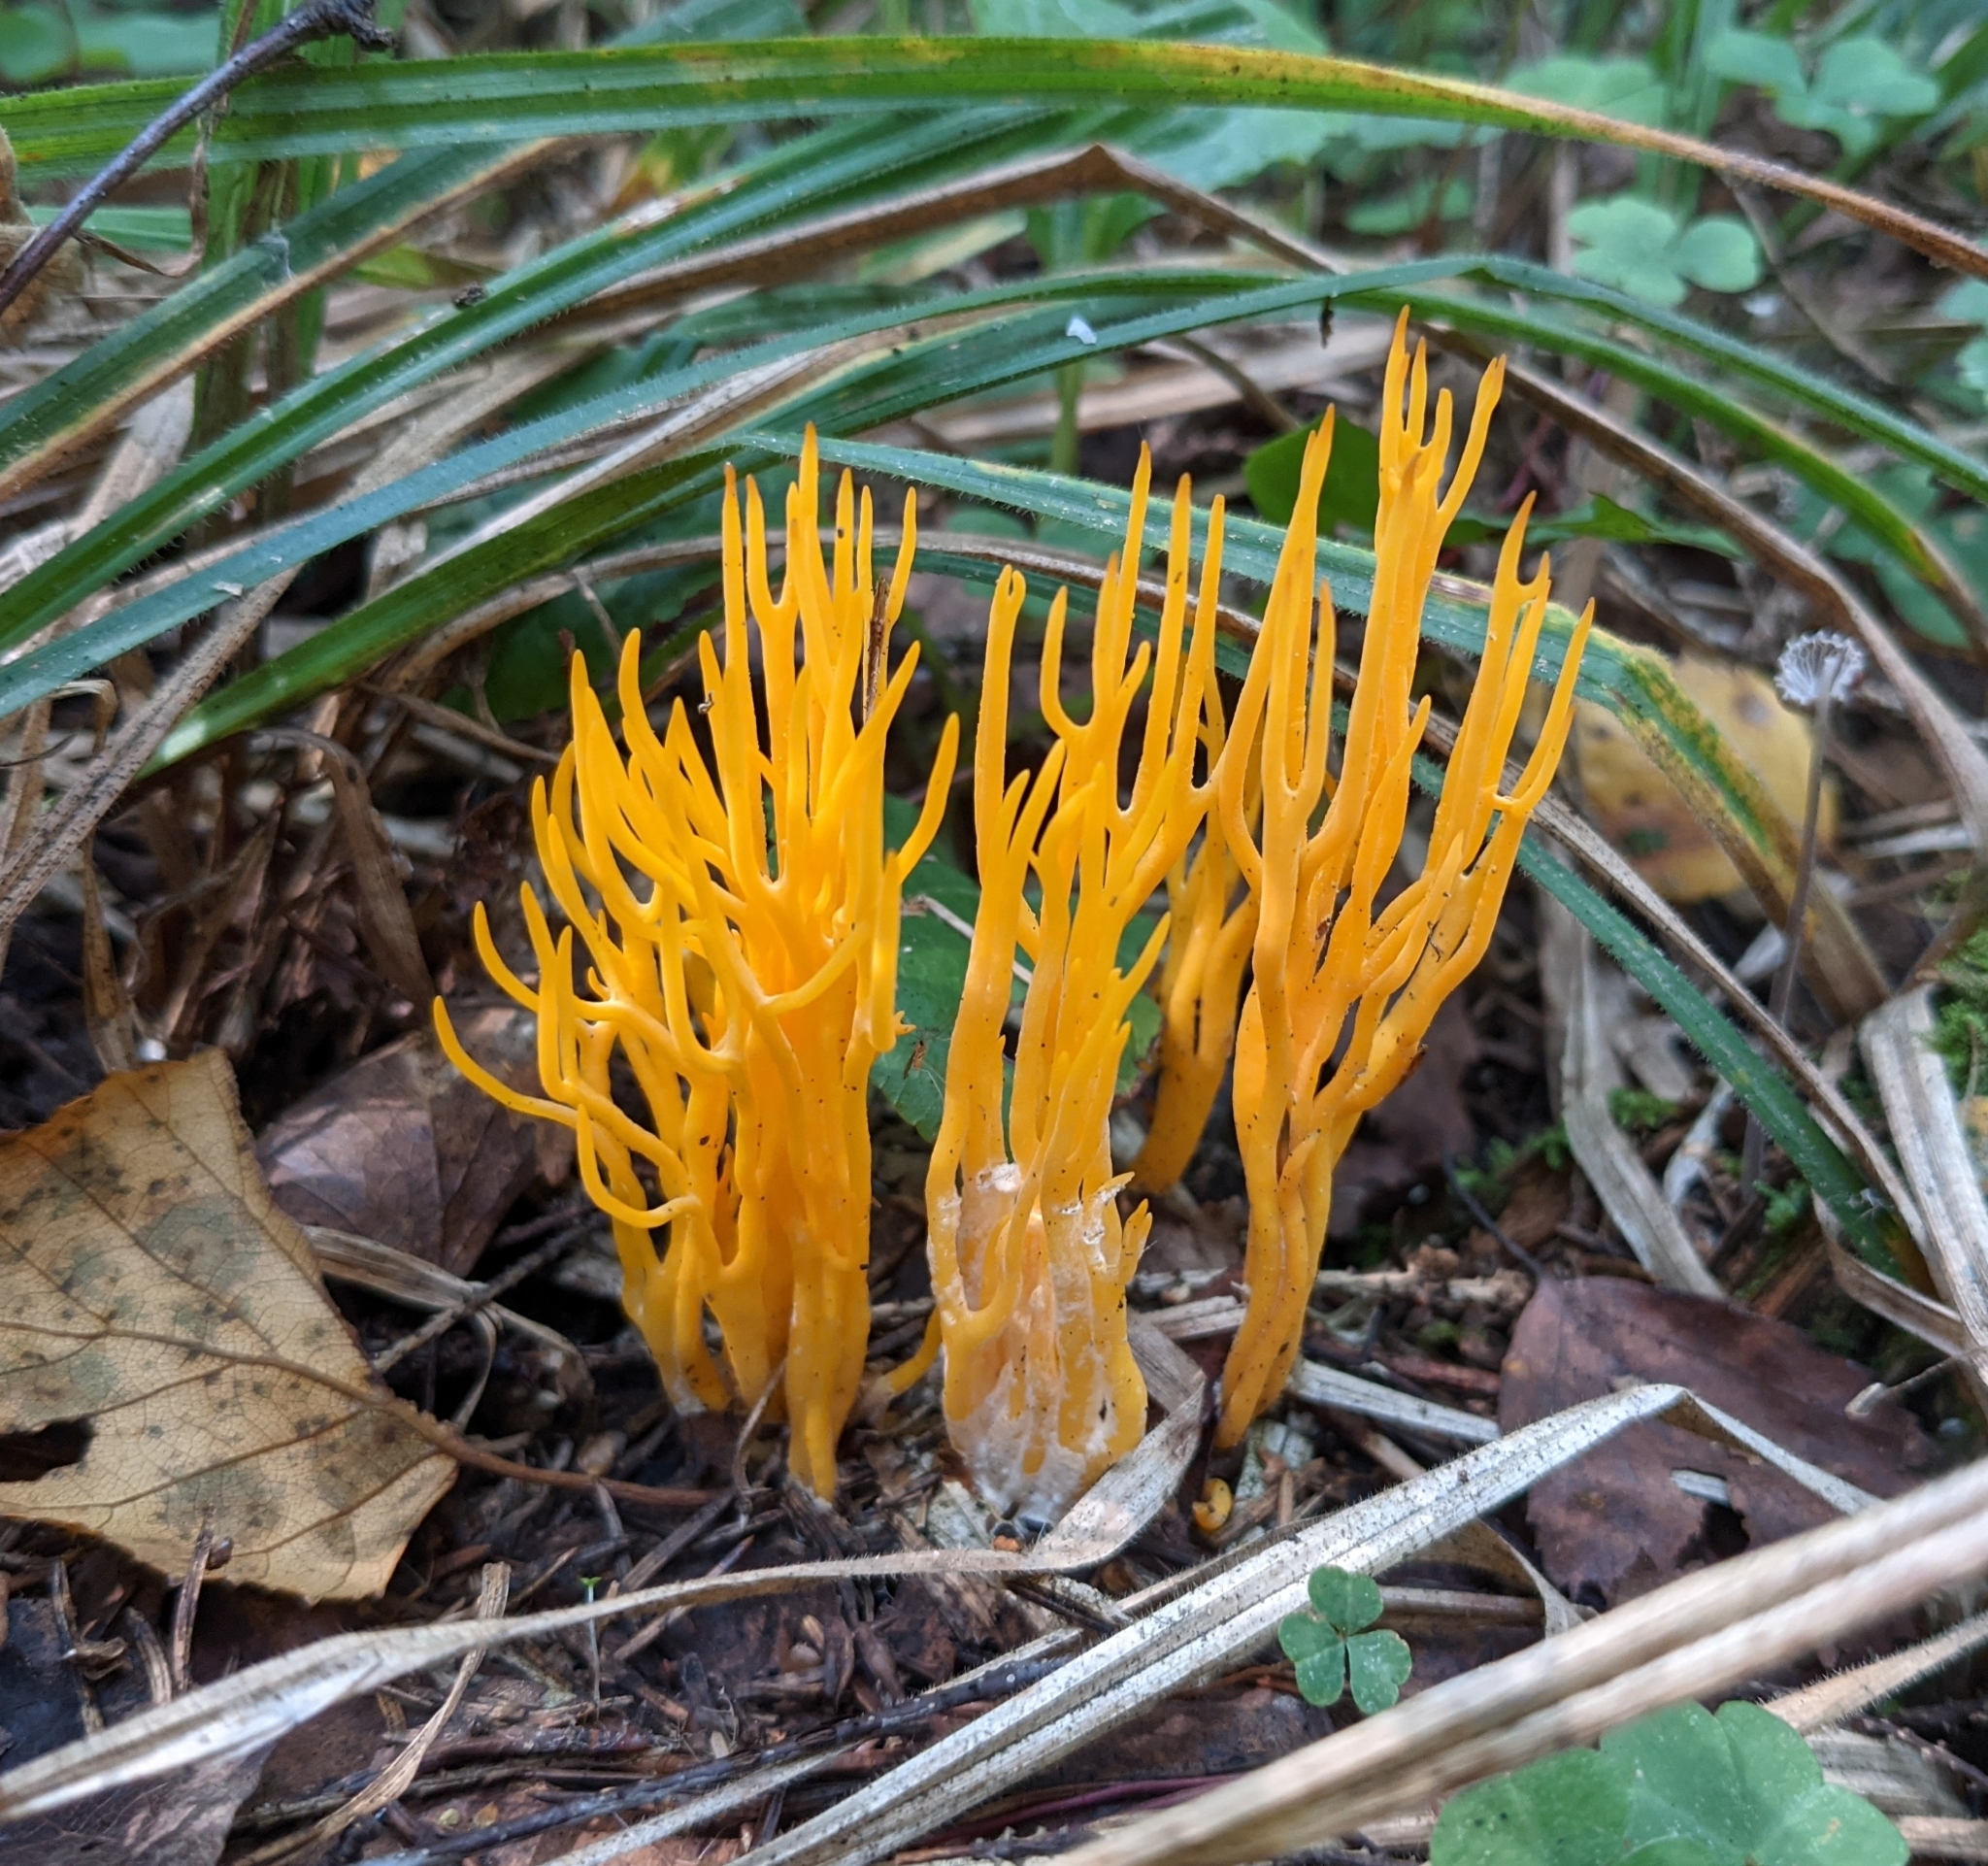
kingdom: Fungi
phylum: Basidiomycota
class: Dacrymycetes
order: Dacrymycetales
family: Dacrymycetaceae
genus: Calocera
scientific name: Calocera viscosa
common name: Yellow stagshorn
